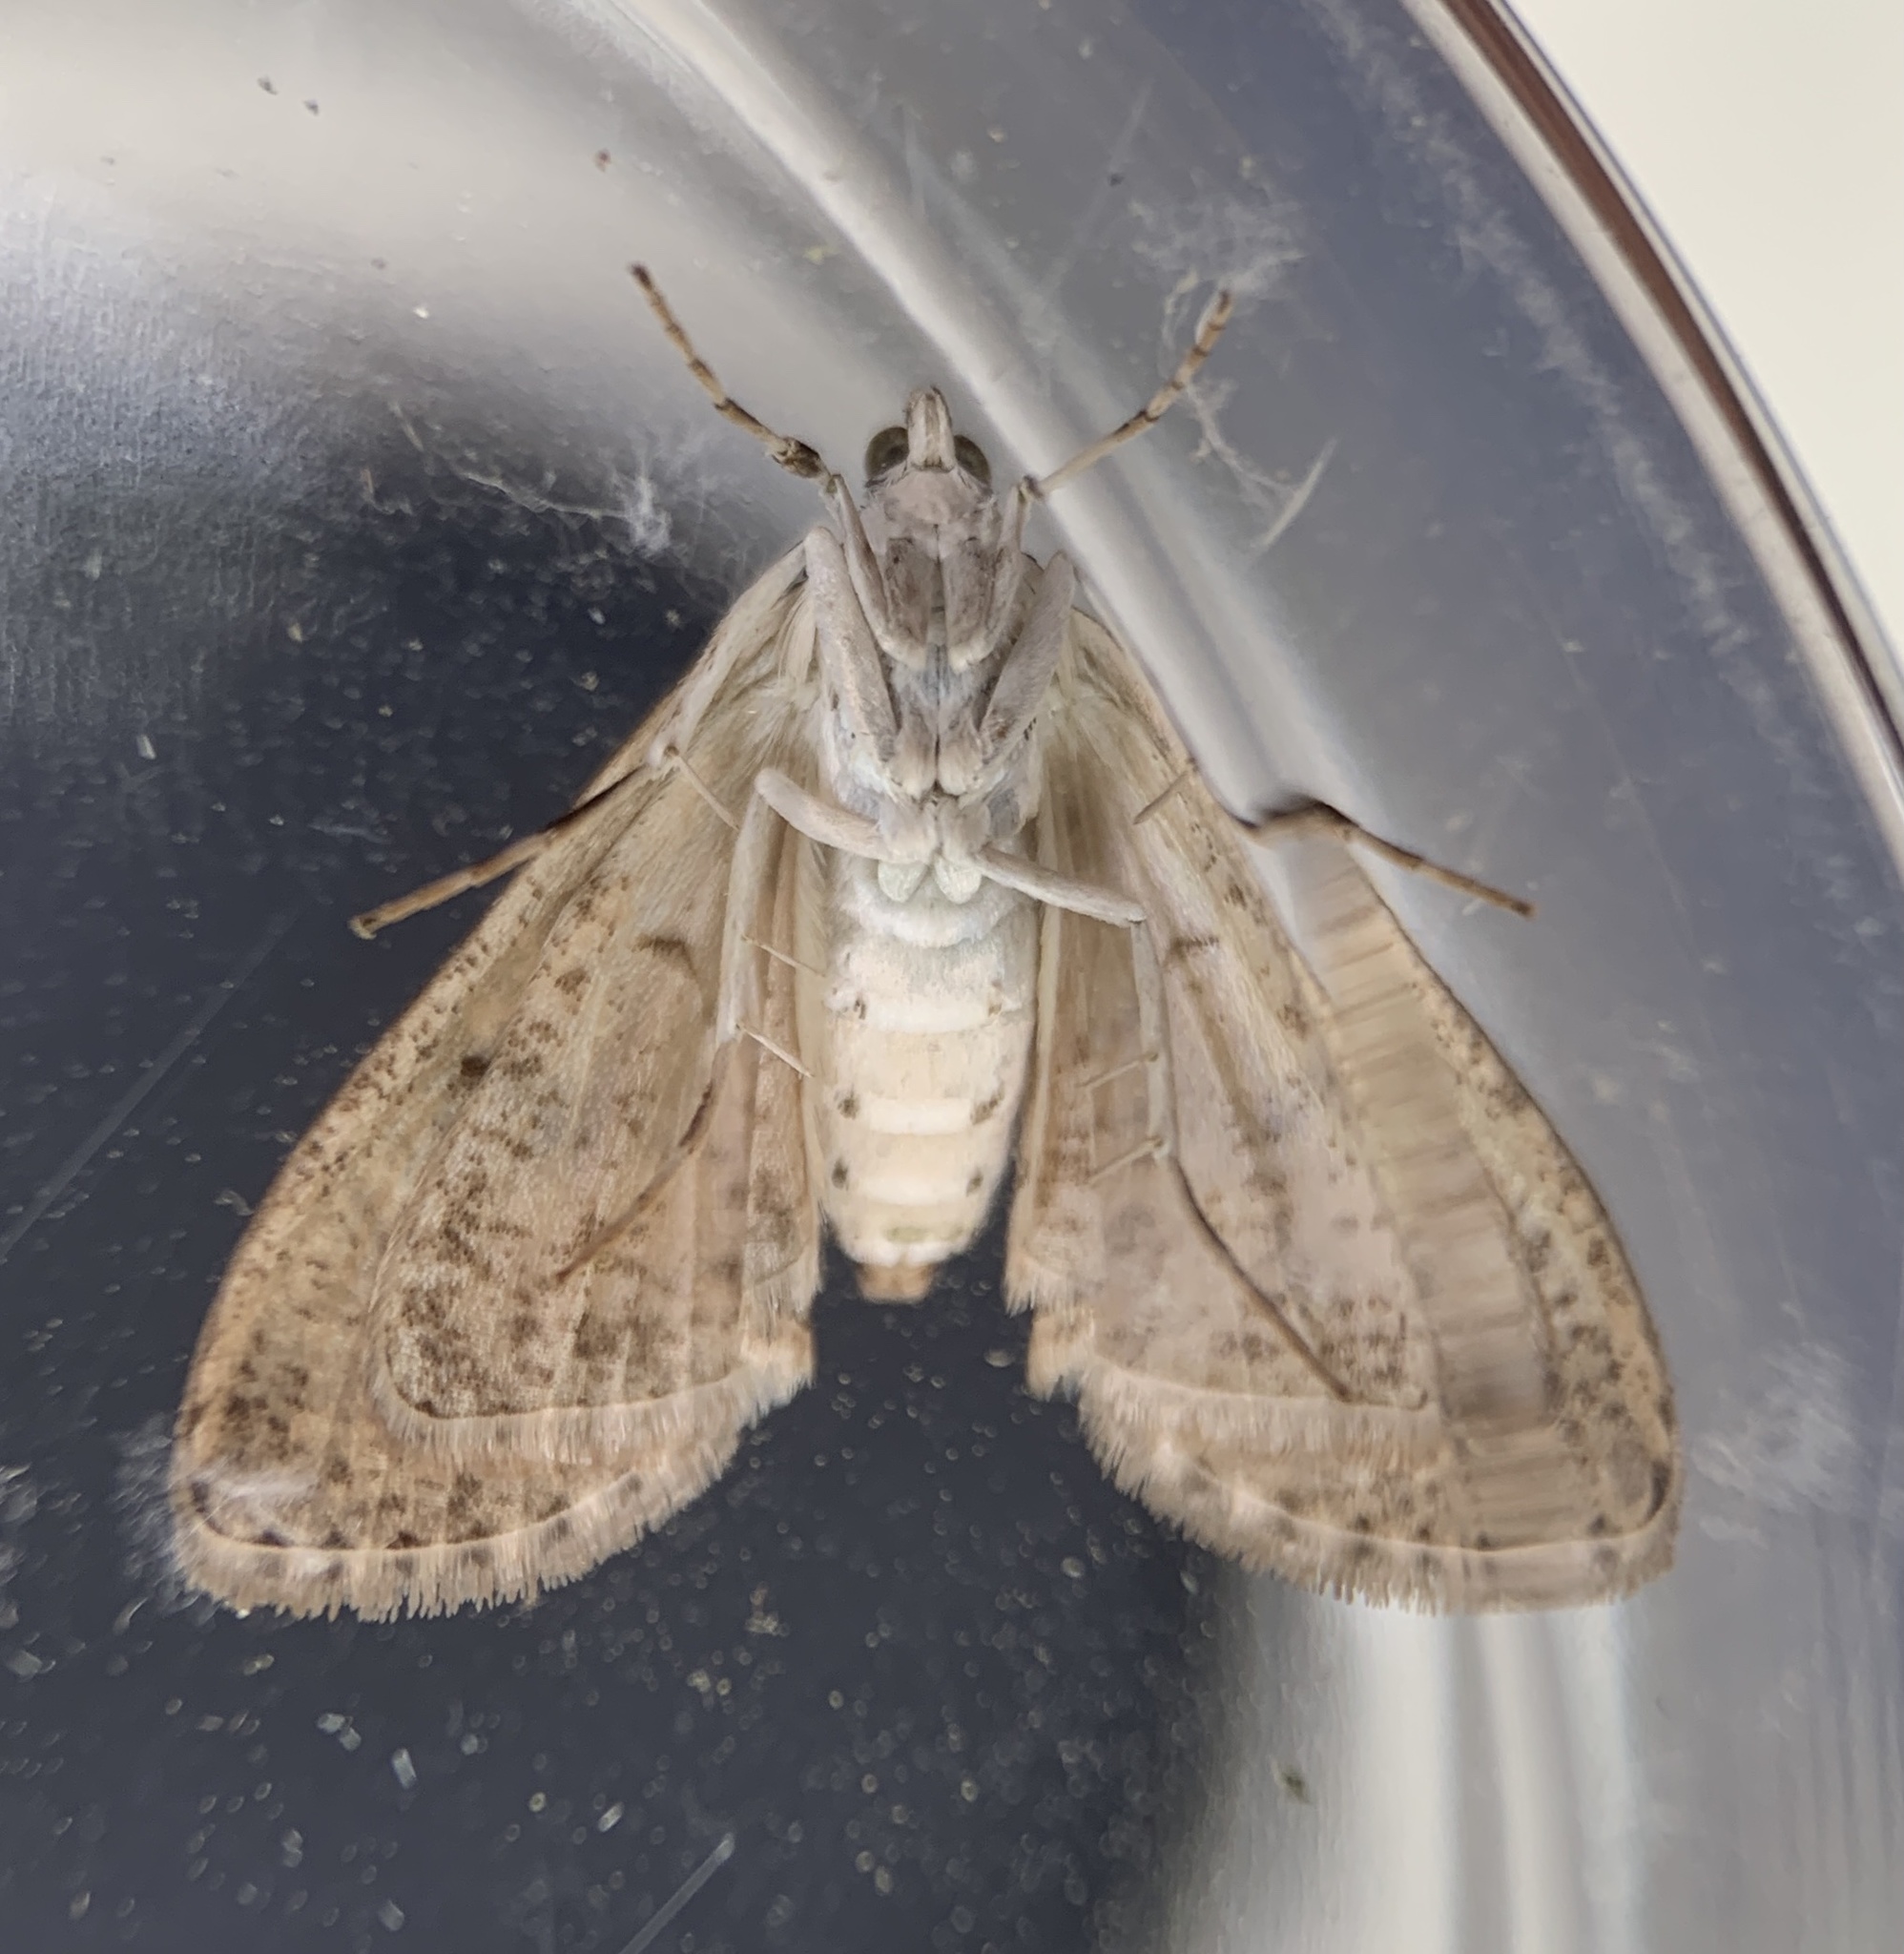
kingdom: Animalia
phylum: Arthropoda
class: Insecta
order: Lepidoptera
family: Crambidae
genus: Palpita
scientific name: Palpita magniferalis
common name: Splendid palpita moth
